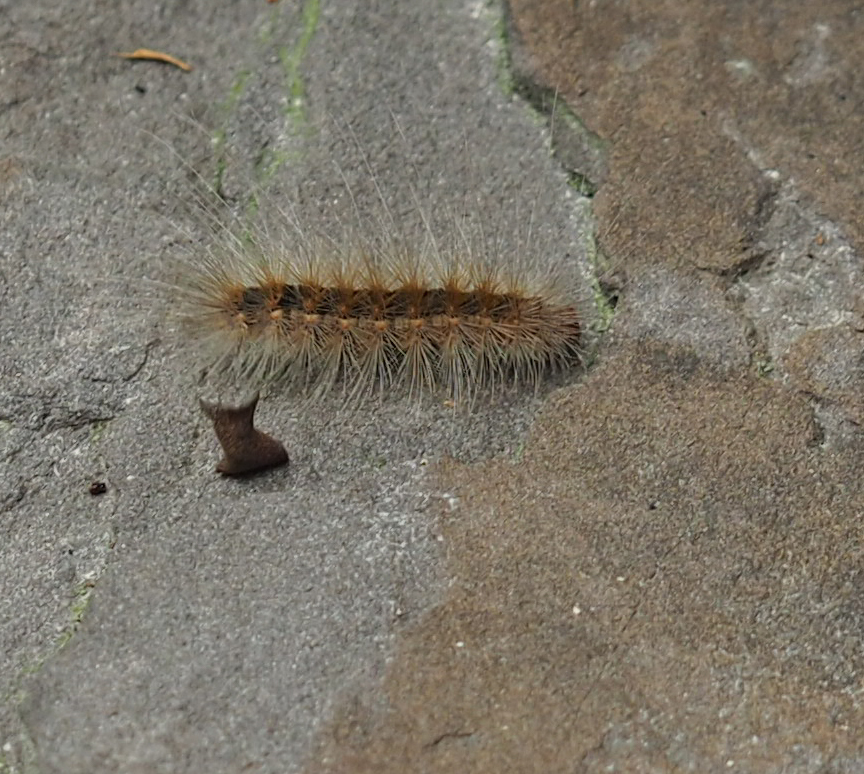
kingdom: Animalia
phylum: Arthropoda
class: Insecta
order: Lepidoptera
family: Erebidae
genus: Hyphantria
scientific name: Hyphantria cunea
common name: American white moth
